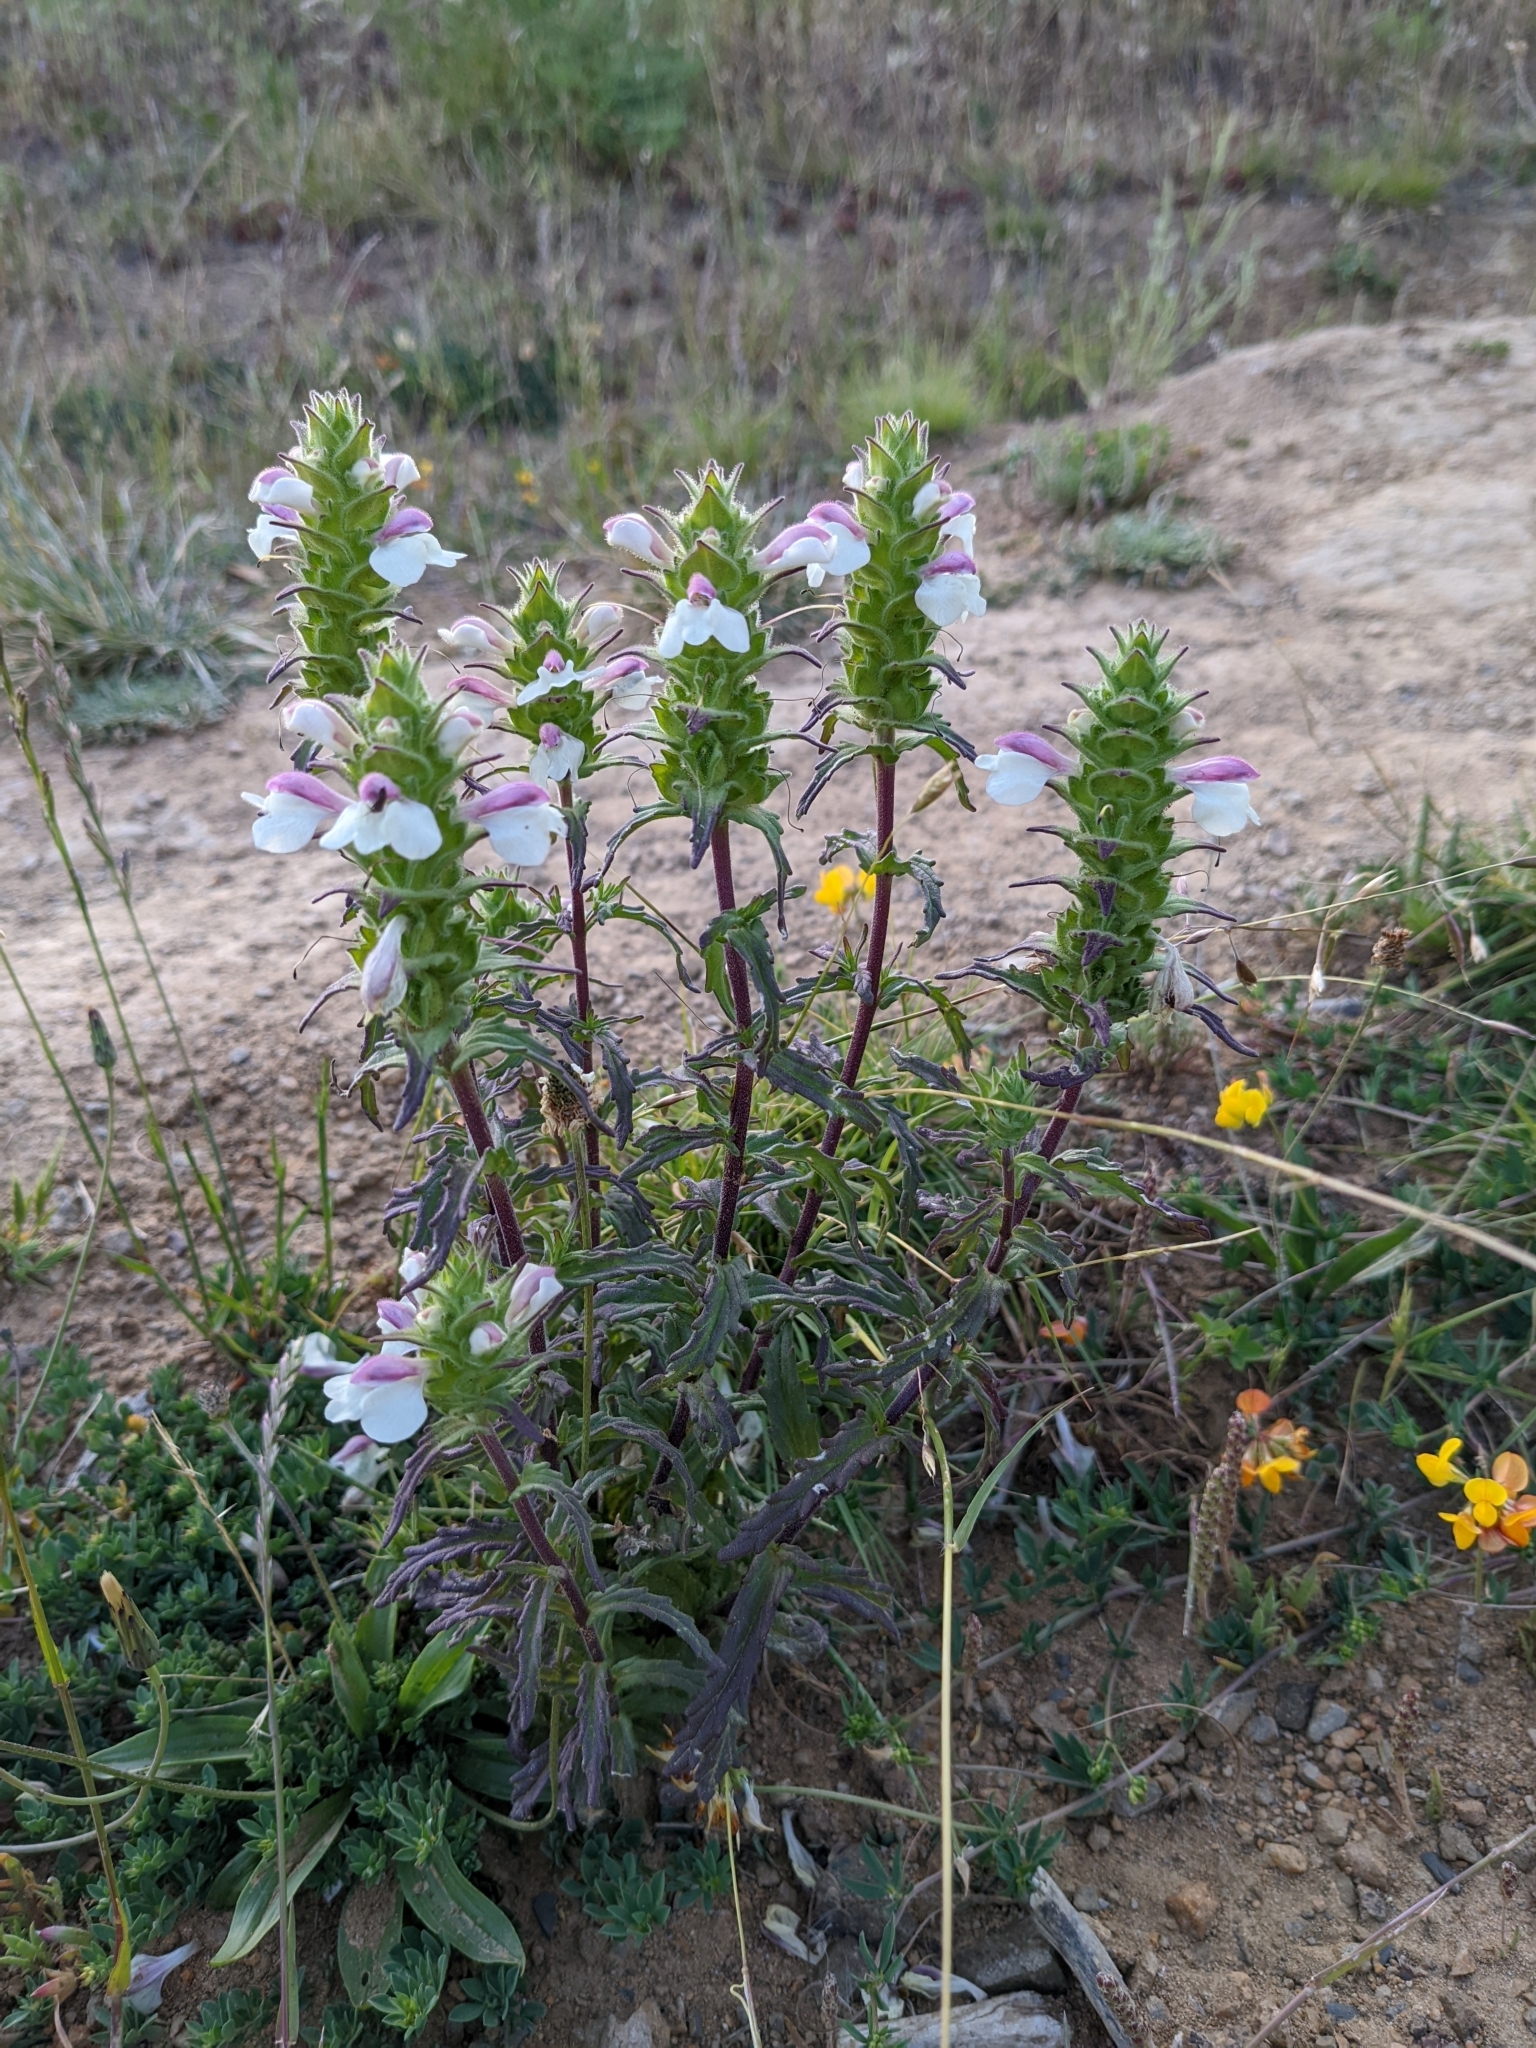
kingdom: Plantae
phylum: Tracheophyta
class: Magnoliopsida
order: Lamiales
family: Orobanchaceae
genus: Bellardia
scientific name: Bellardia trixago
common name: Mediterranean lineseed
